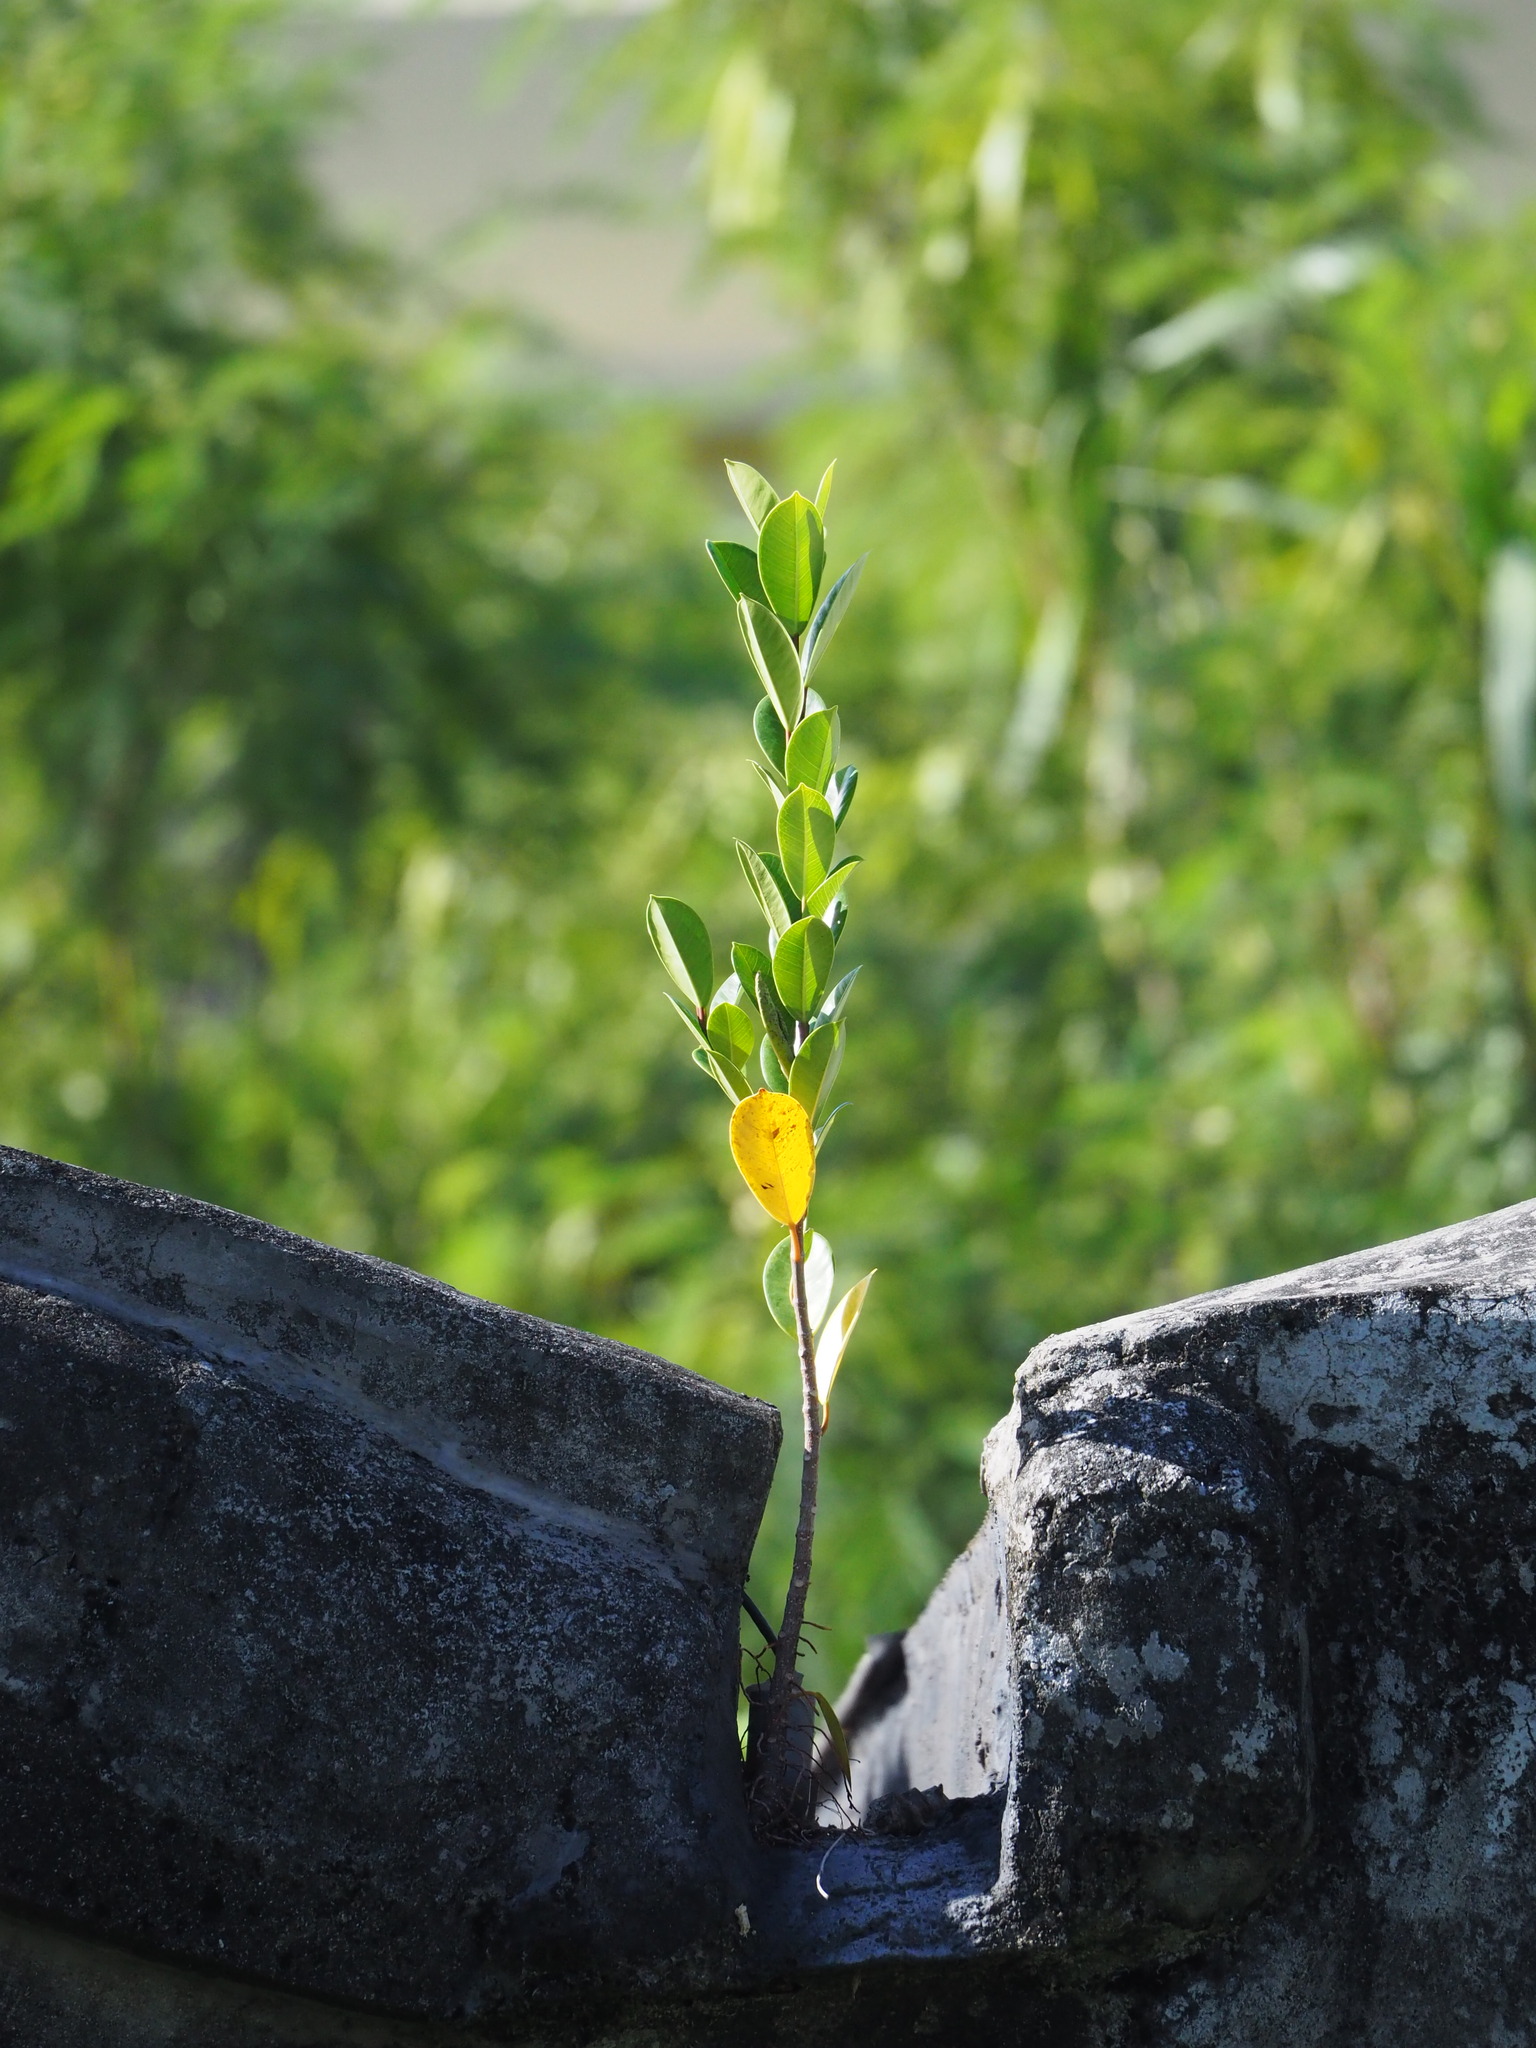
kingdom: Plantae
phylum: Tracheophyta
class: Magnoliopsida
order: Rosales
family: Moraceae
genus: Ficus
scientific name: Ficus microcarpa
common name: Chinese banyan
